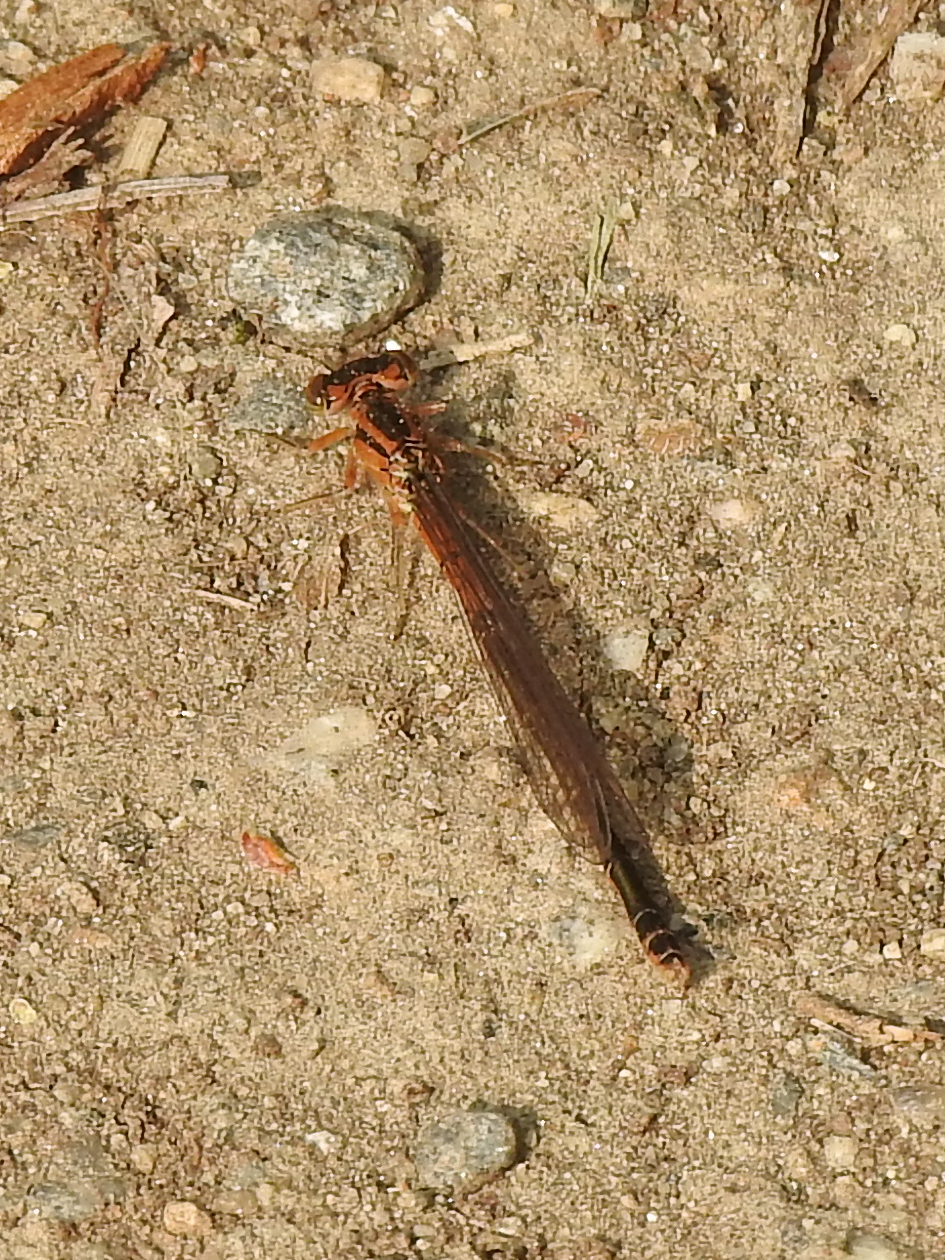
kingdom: Animalia
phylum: Arthropoda
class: Insecta
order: Odonata
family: Coenagrionidae
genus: Ischnura
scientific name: Ischnura verticalis
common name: Eastern forktail
